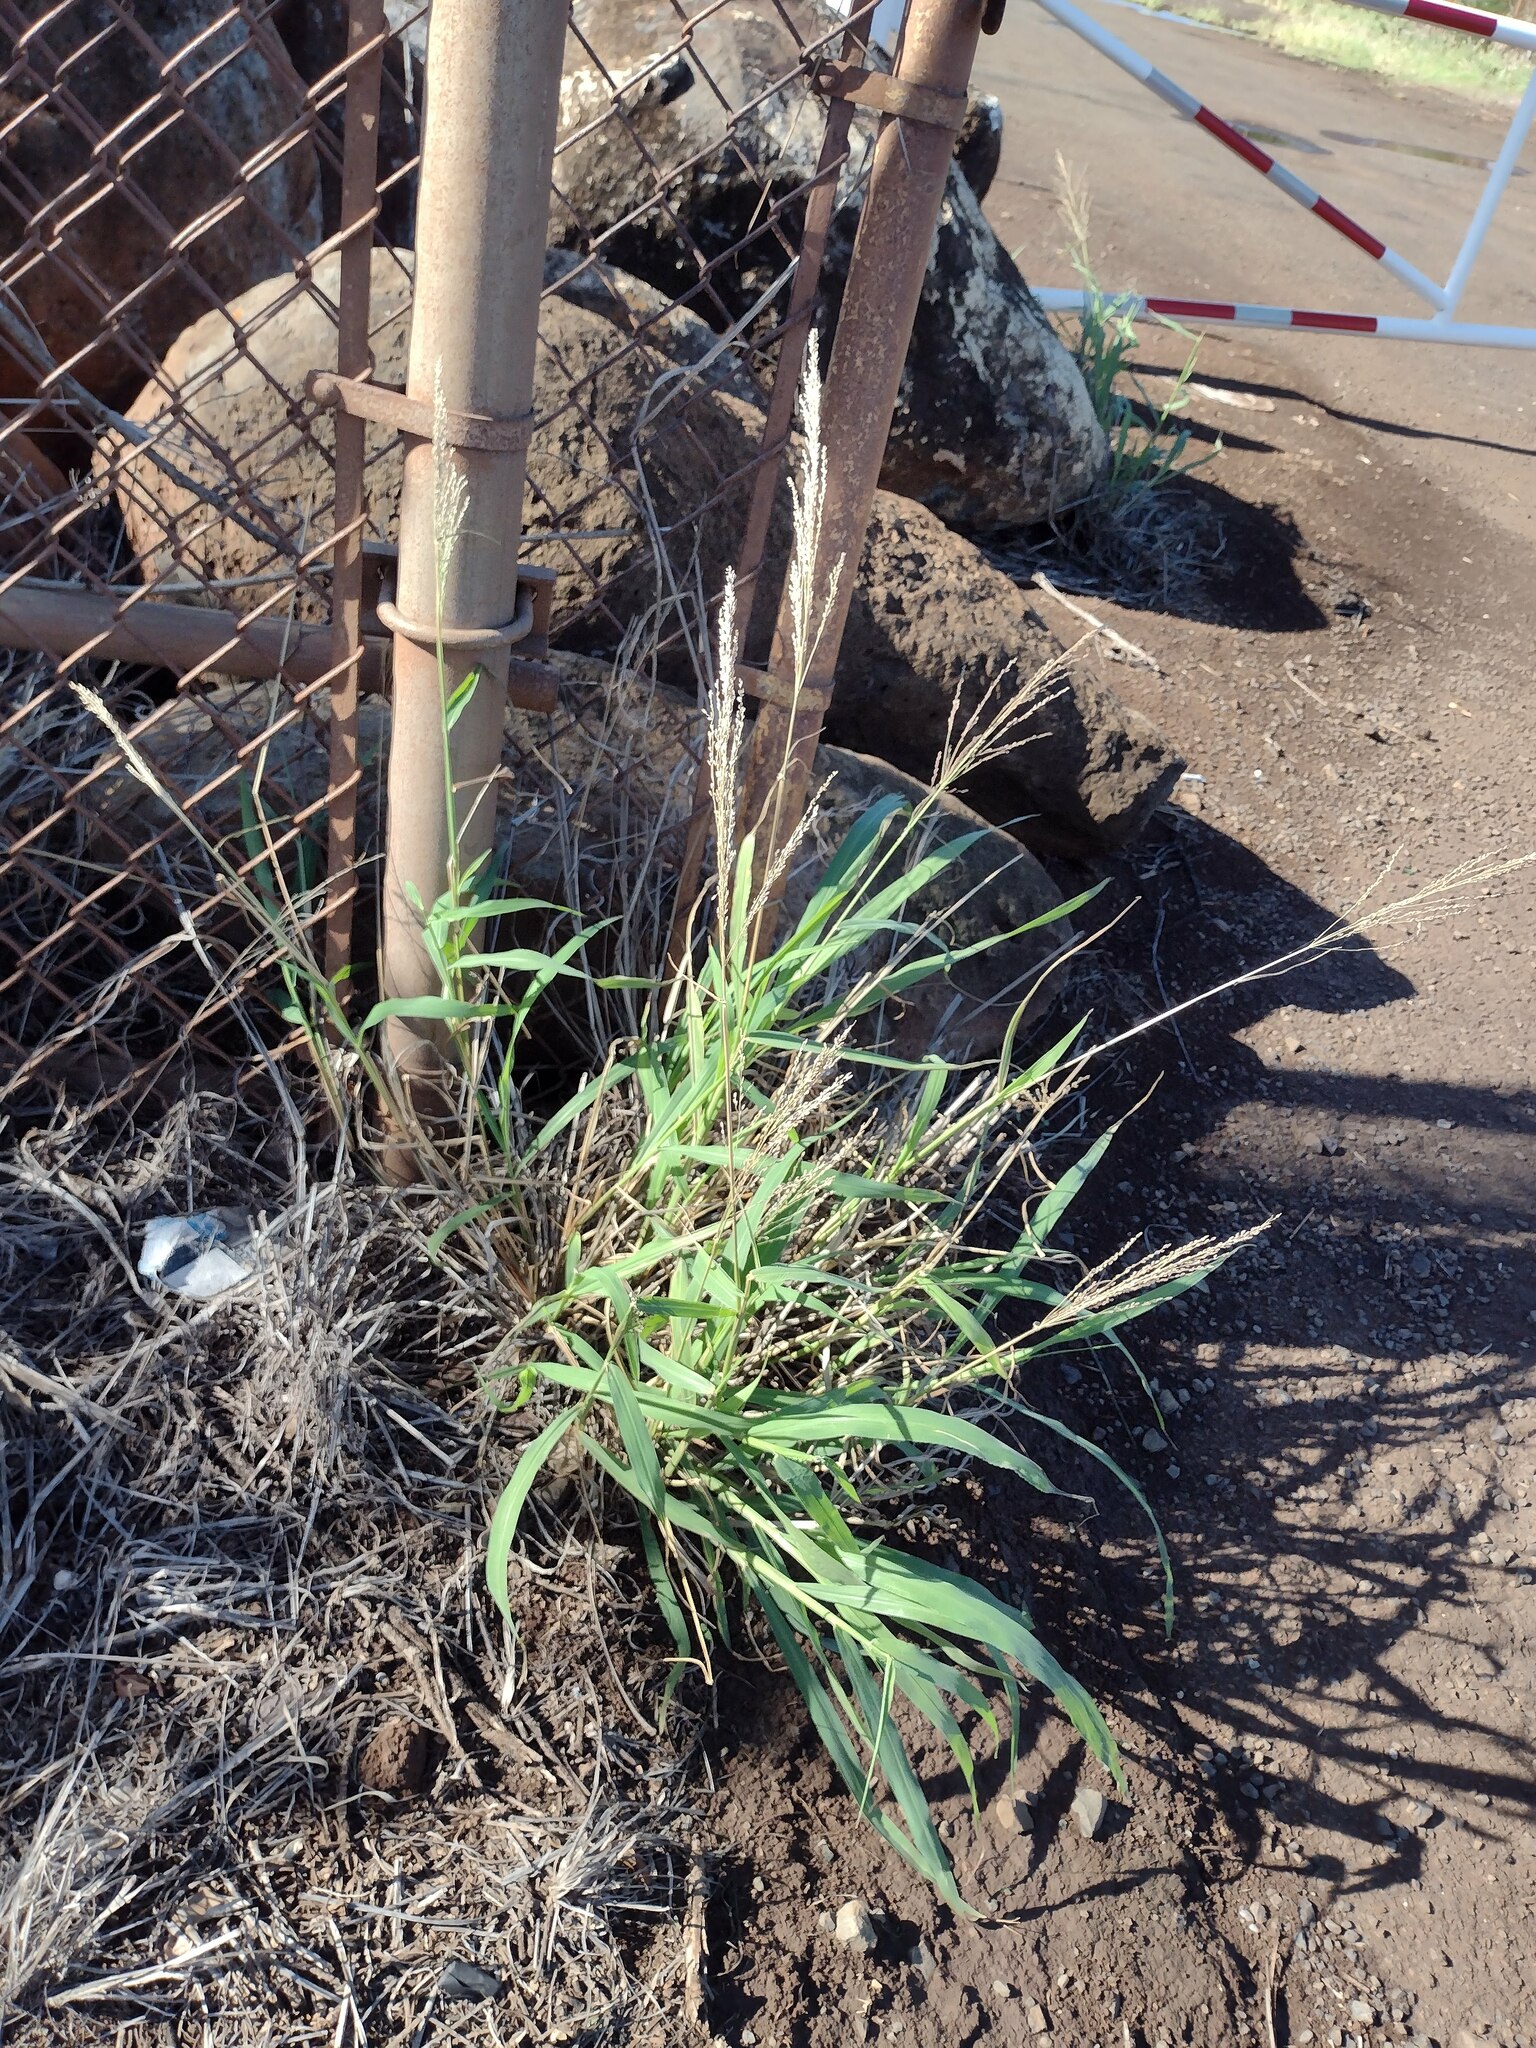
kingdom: Plantae
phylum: Tracheophyta
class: Liliopsida
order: Poales
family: Poaceae
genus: Megathyrsus
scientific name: Megathyrsus maximus
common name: Guineagrass
